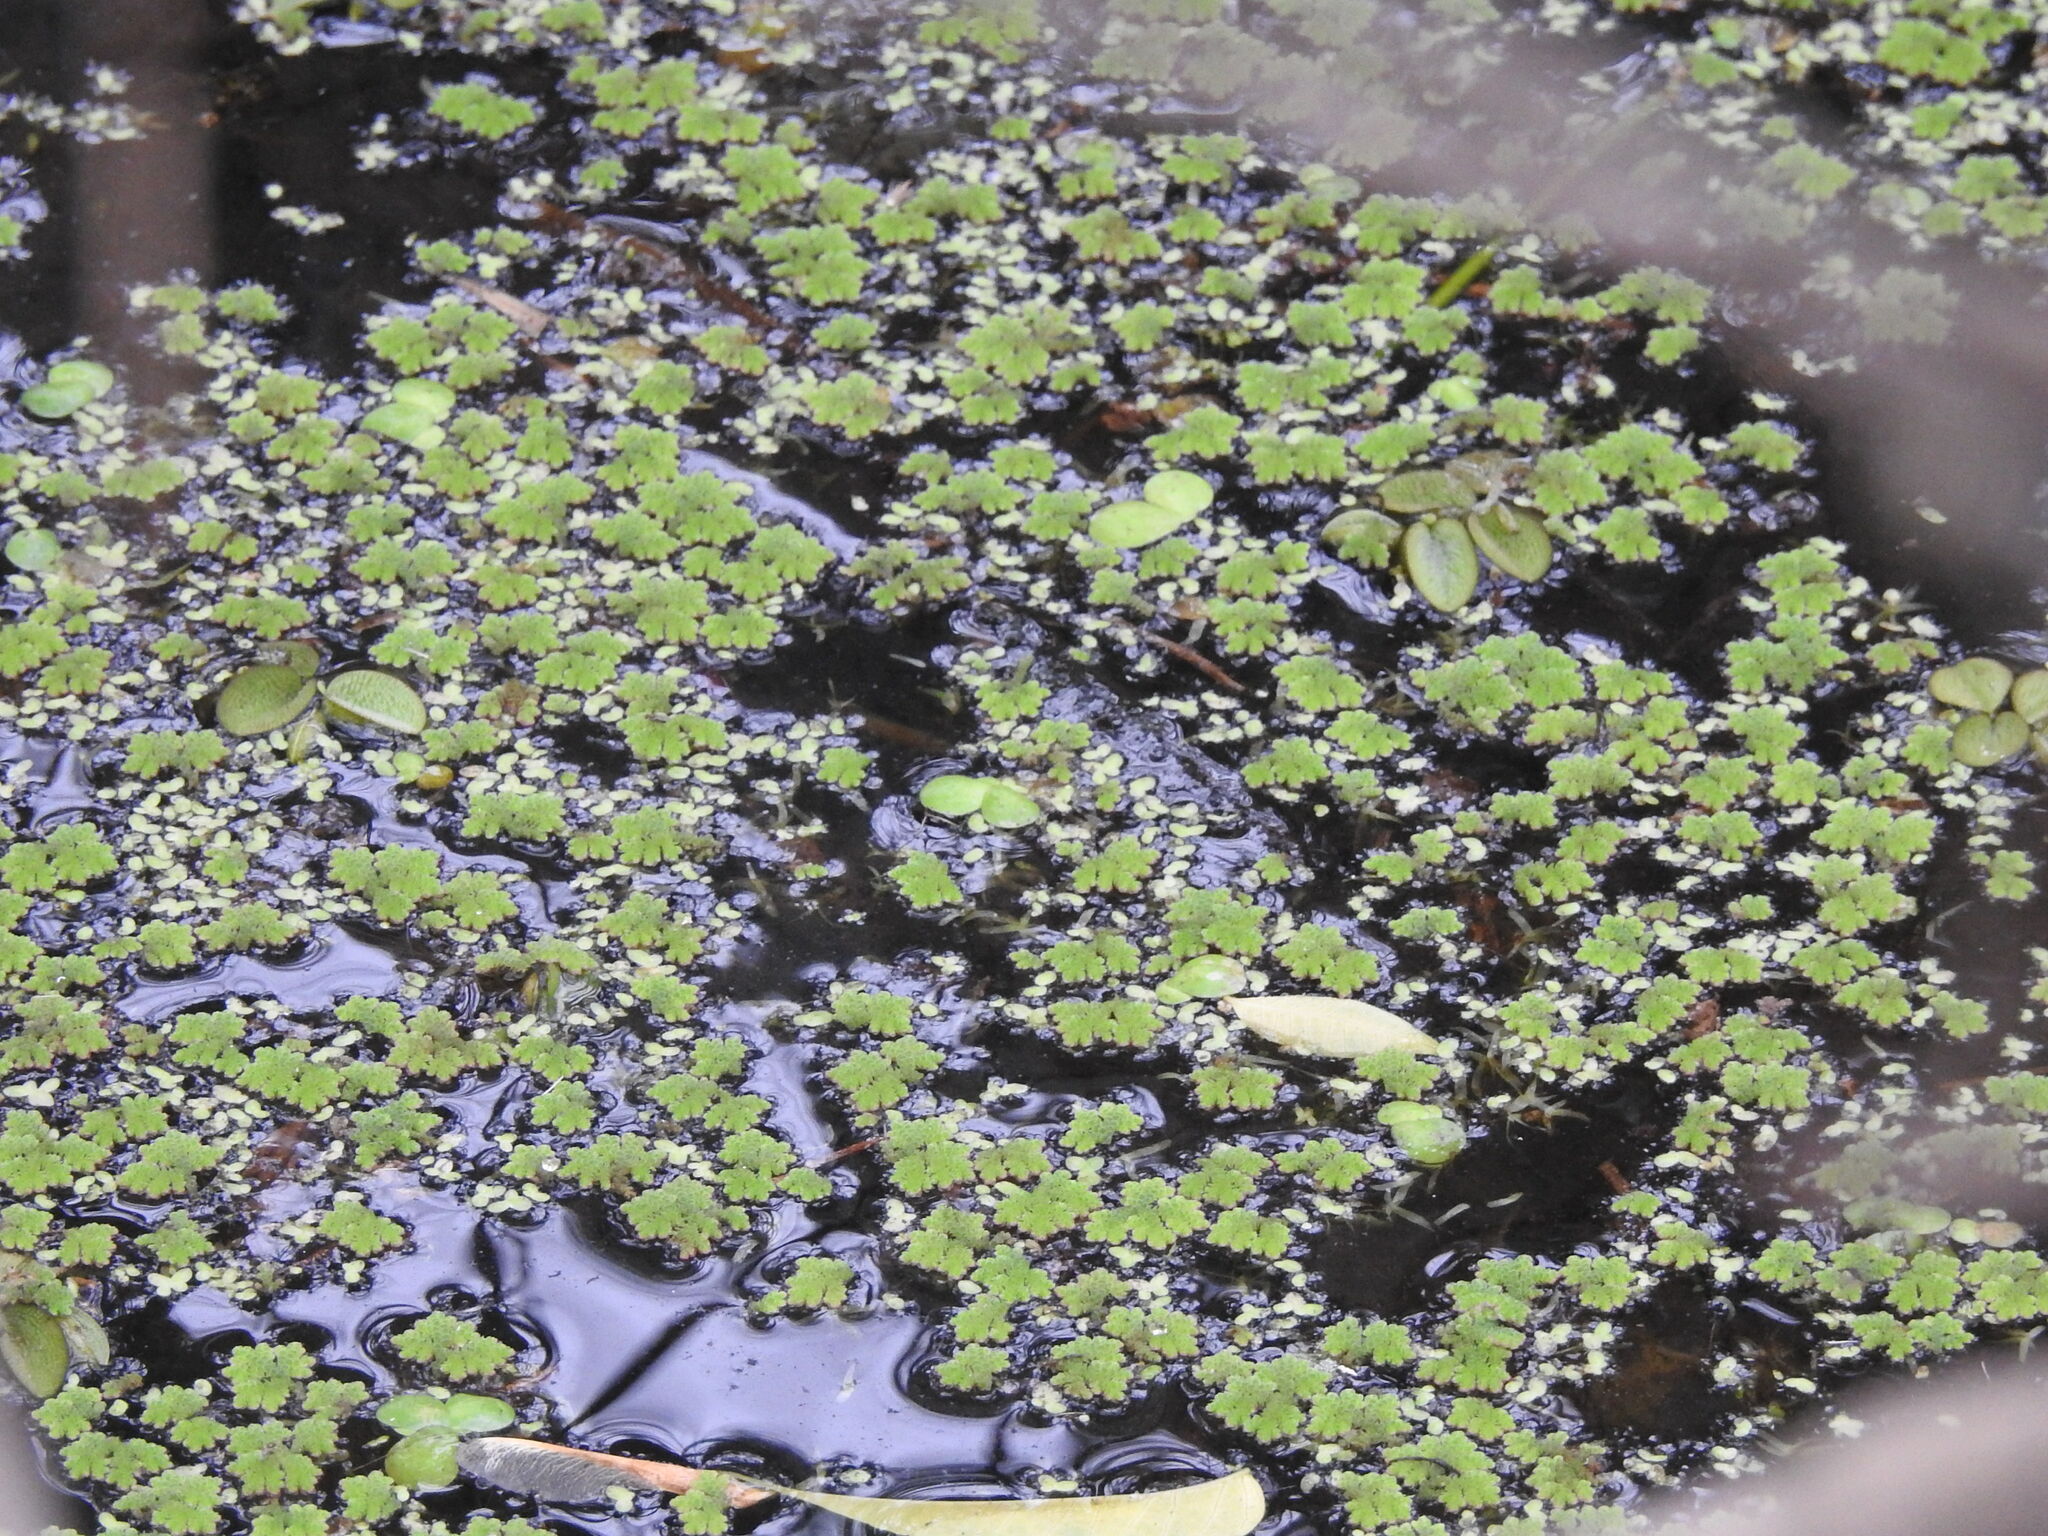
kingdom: Plantae
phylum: Tracheophyta
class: Polypodiopsida
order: Salviniales
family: Salviniaceae
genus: Azolla
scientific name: Azolla filiculoides
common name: Water fern
